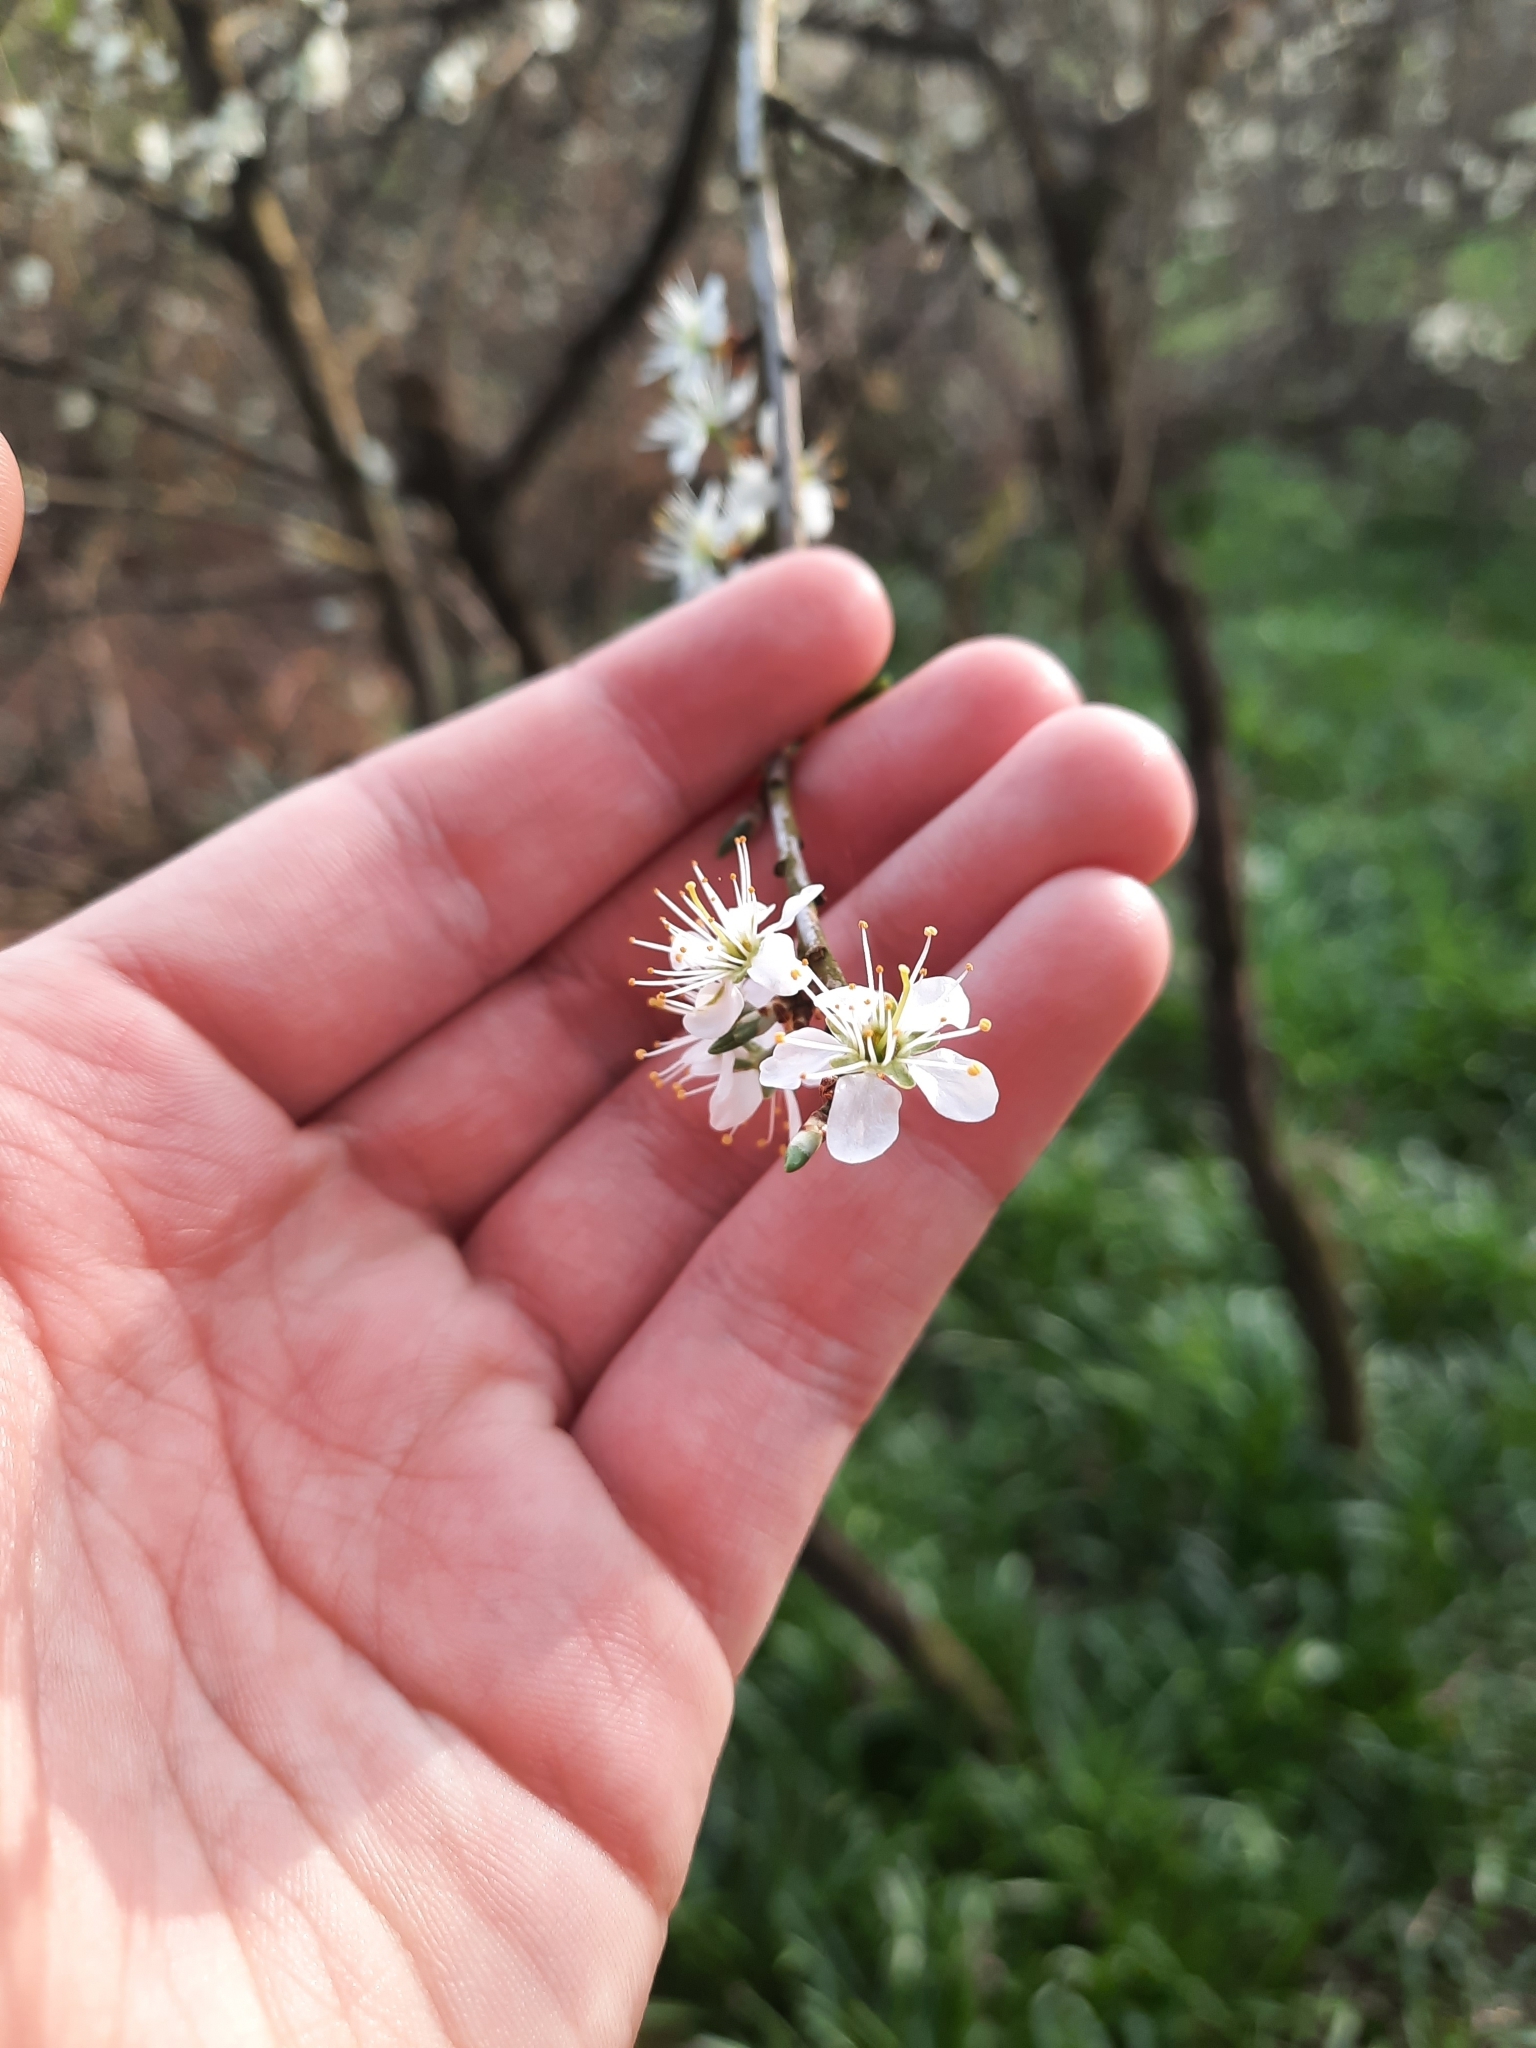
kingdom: Plantae
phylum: Tracheophyta
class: Magnoliopsida
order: Rosales
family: Rosaceae
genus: Prunus
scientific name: Prunus spinosa
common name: Blackthorn
